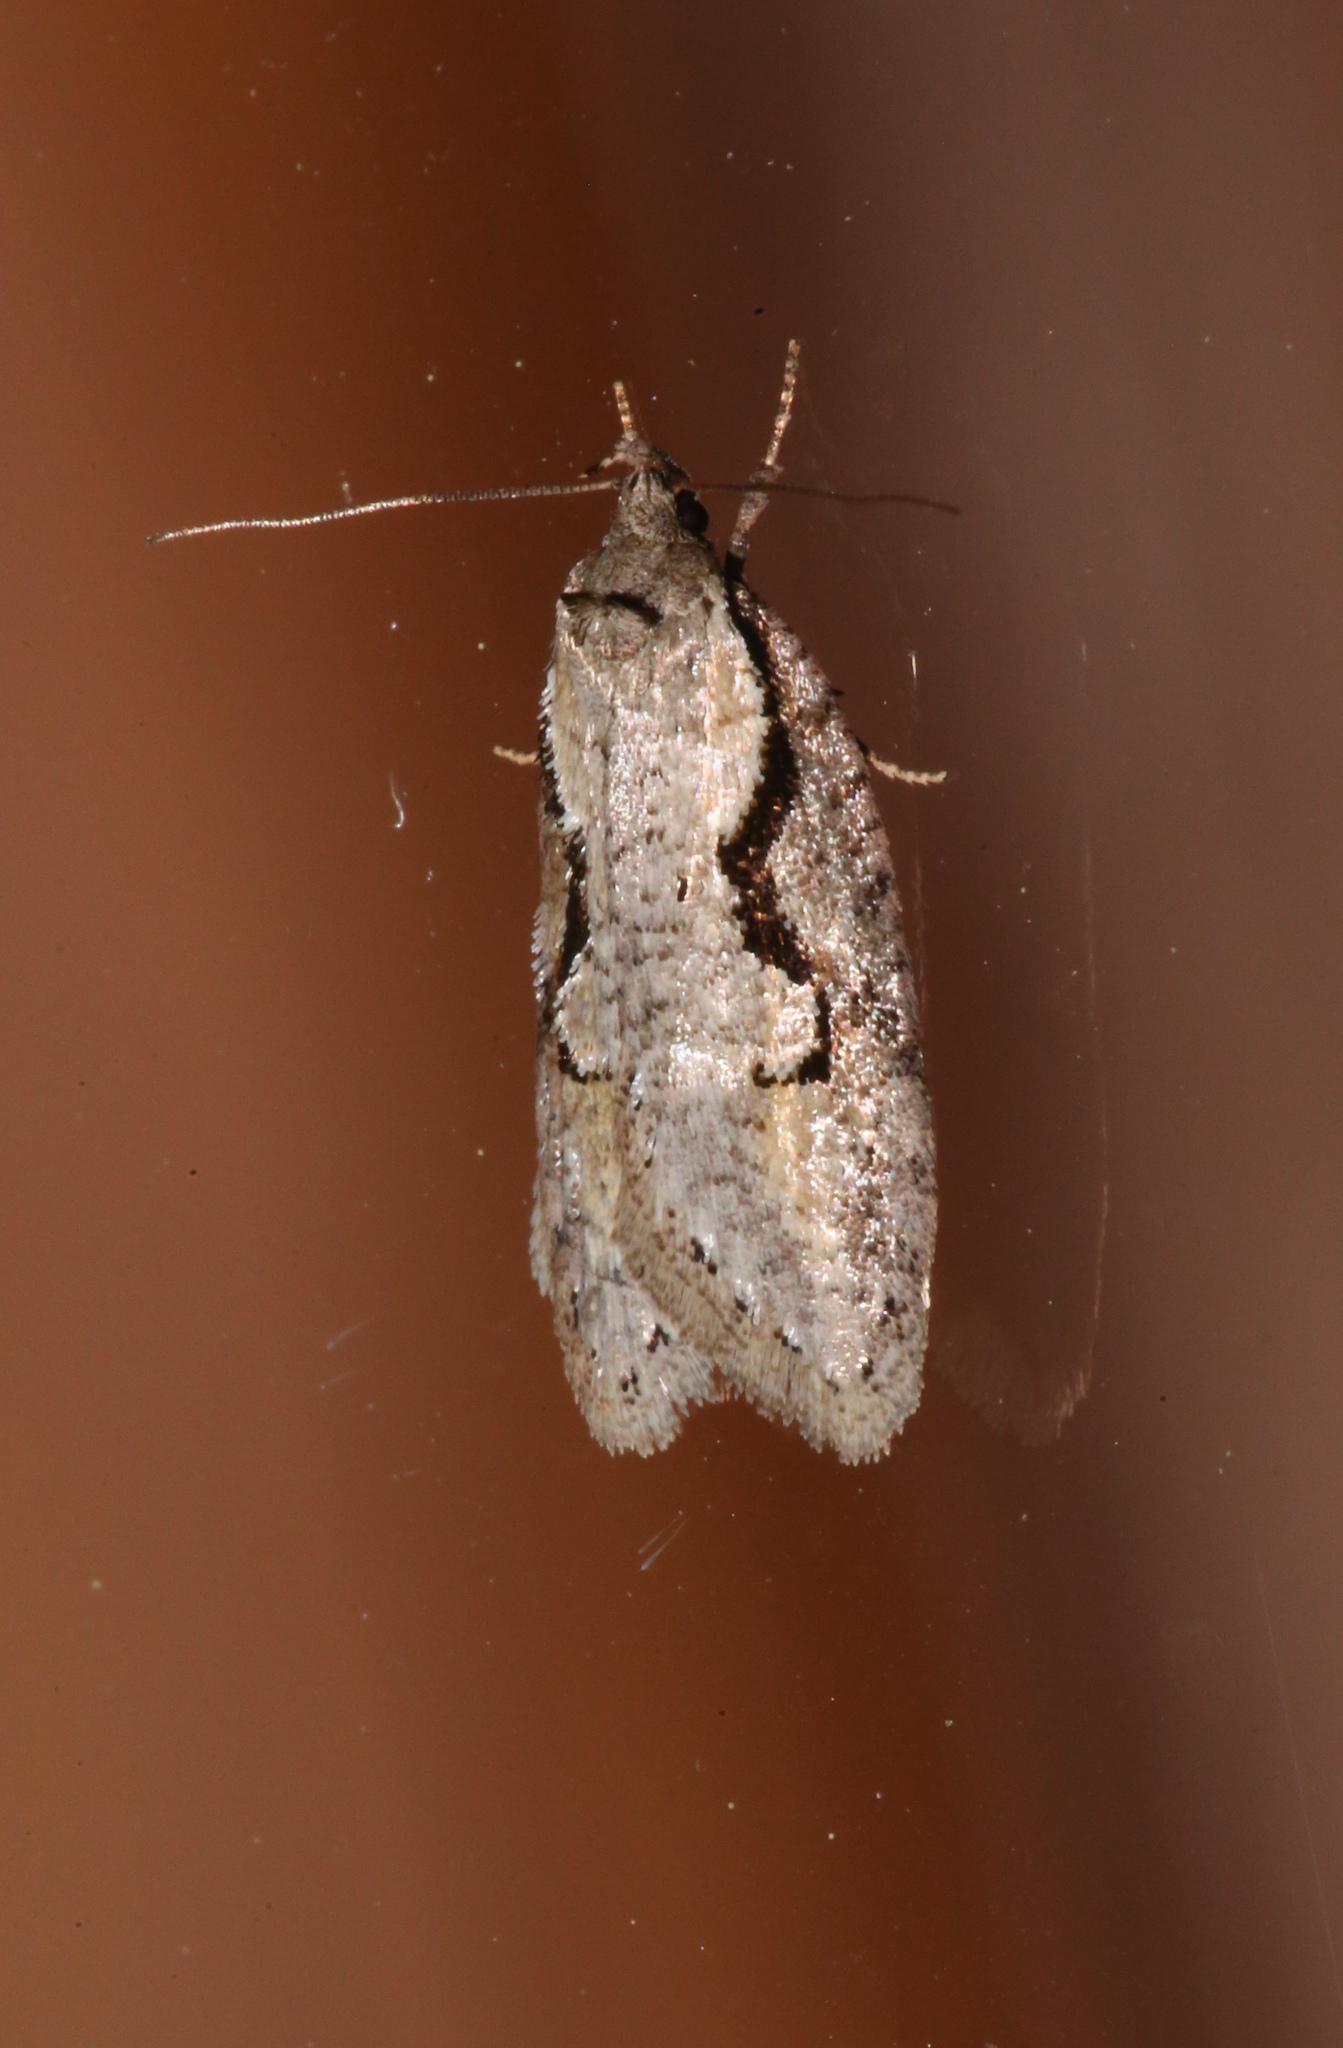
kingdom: Animalia
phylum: Arthropoda
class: Insecta
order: Lepidoptera
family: Depressariidae
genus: Semioscopis
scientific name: Semioscopis packardella
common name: Packard's concealer moth
